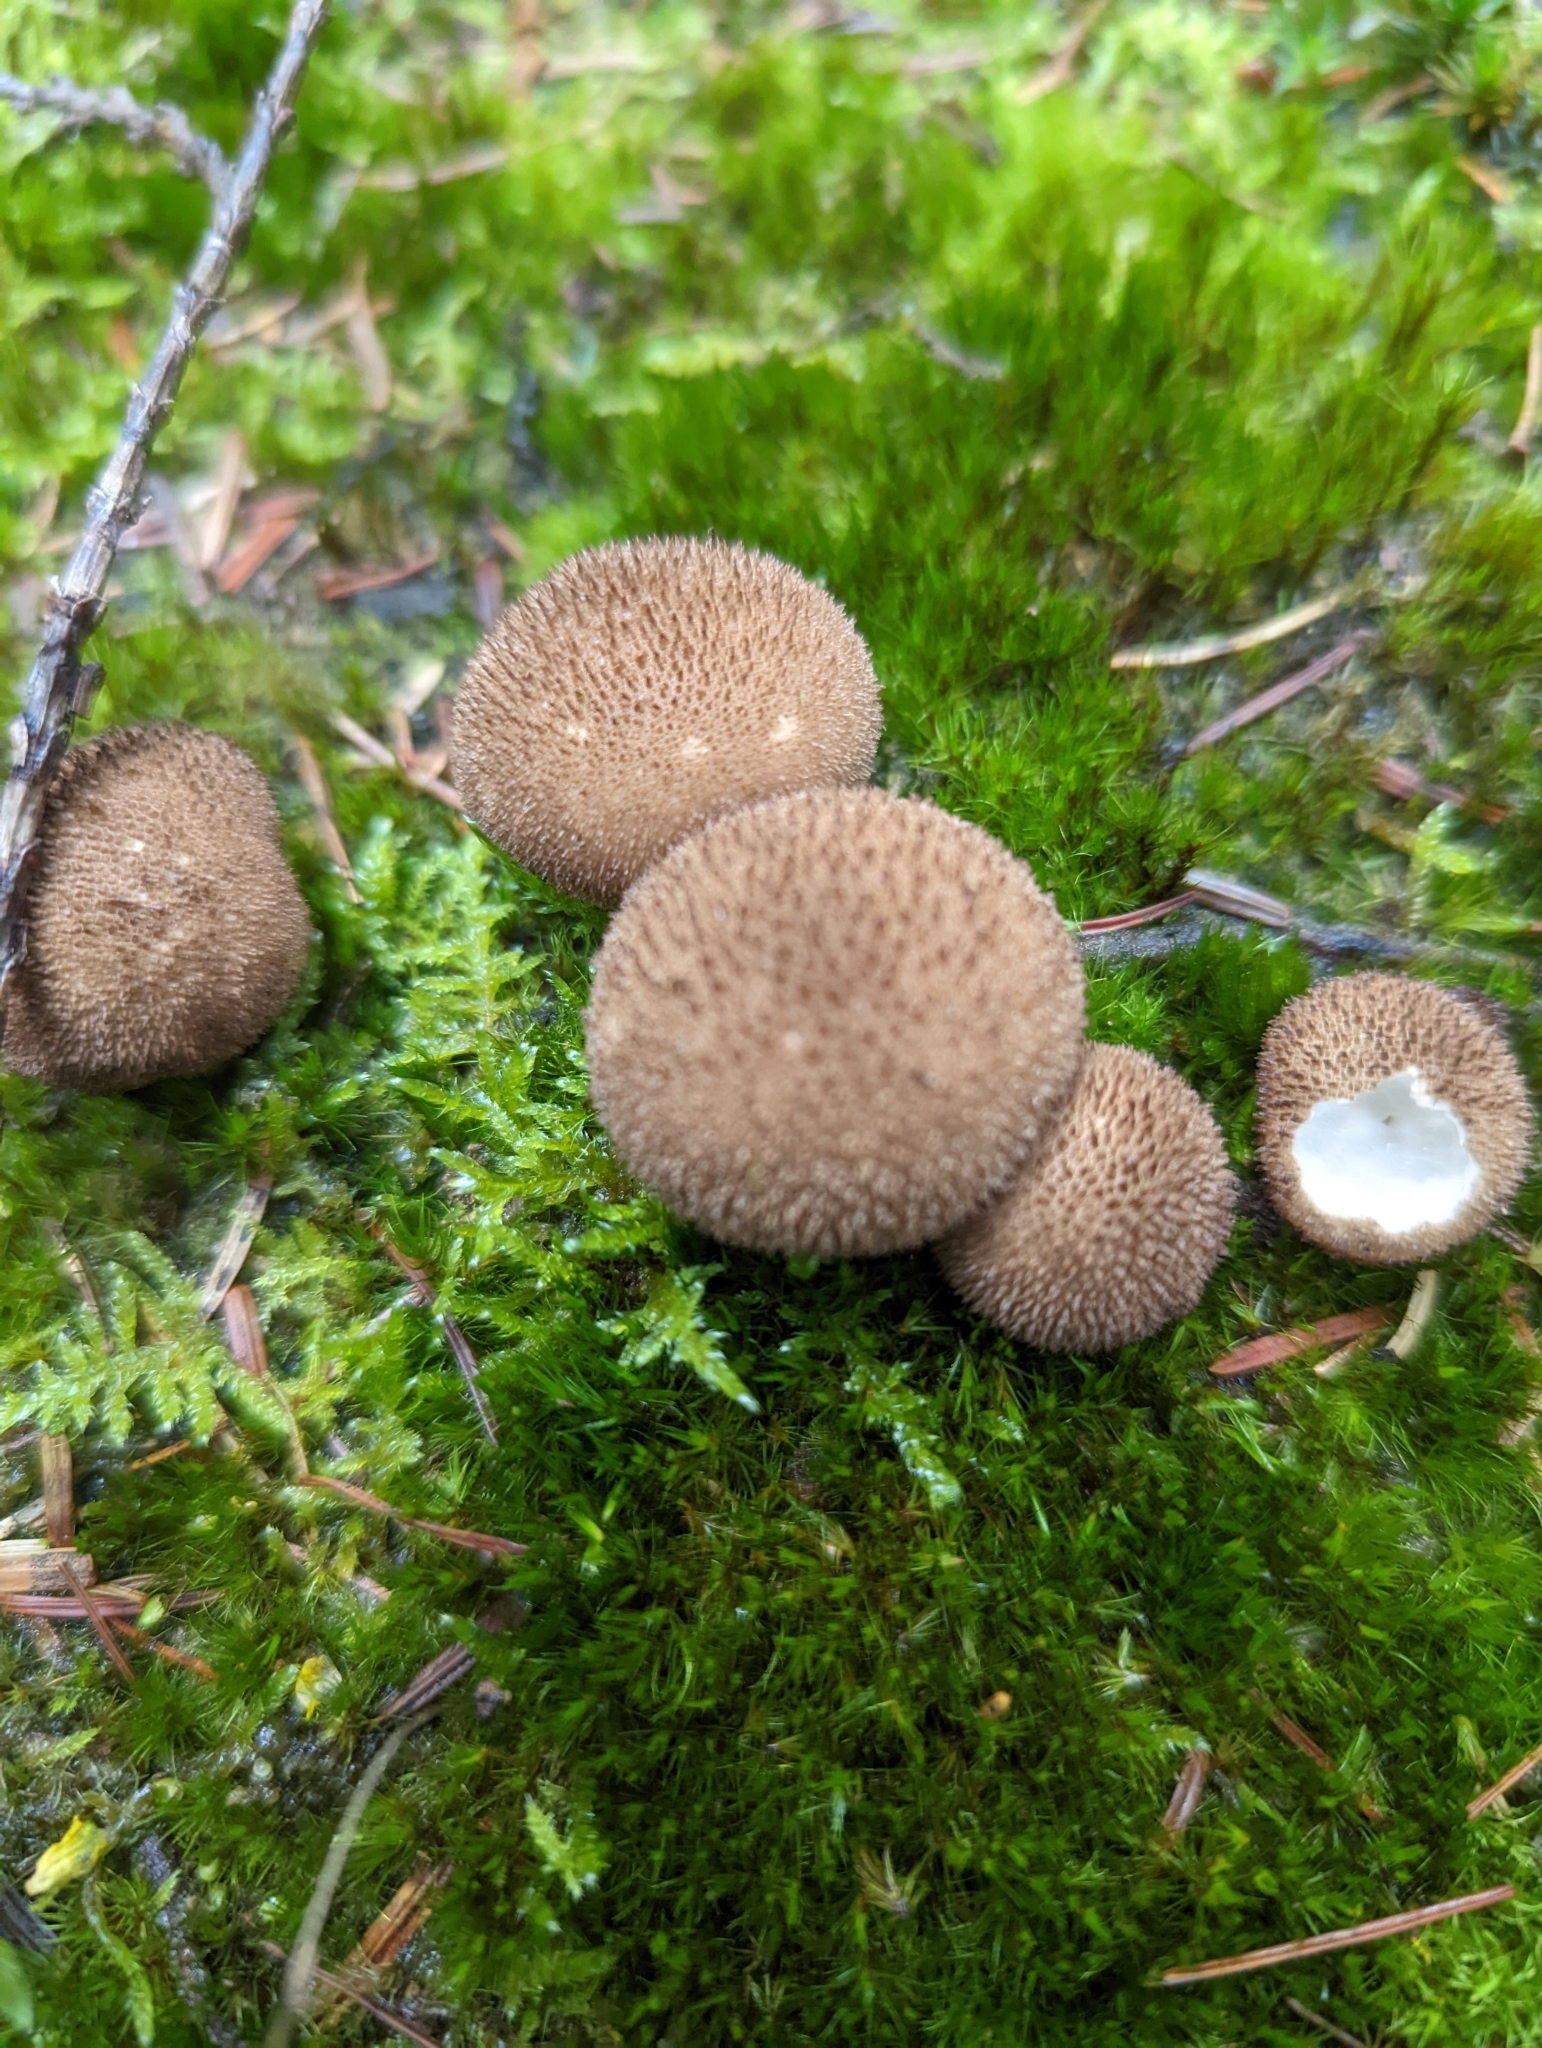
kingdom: Fungi
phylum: Basidiomycota
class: Agaricomycetes
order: Agaricales
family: Lycoperdaceae
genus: Lycoperdon
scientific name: Lycoperdon nigrescens
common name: Blackish puffball
